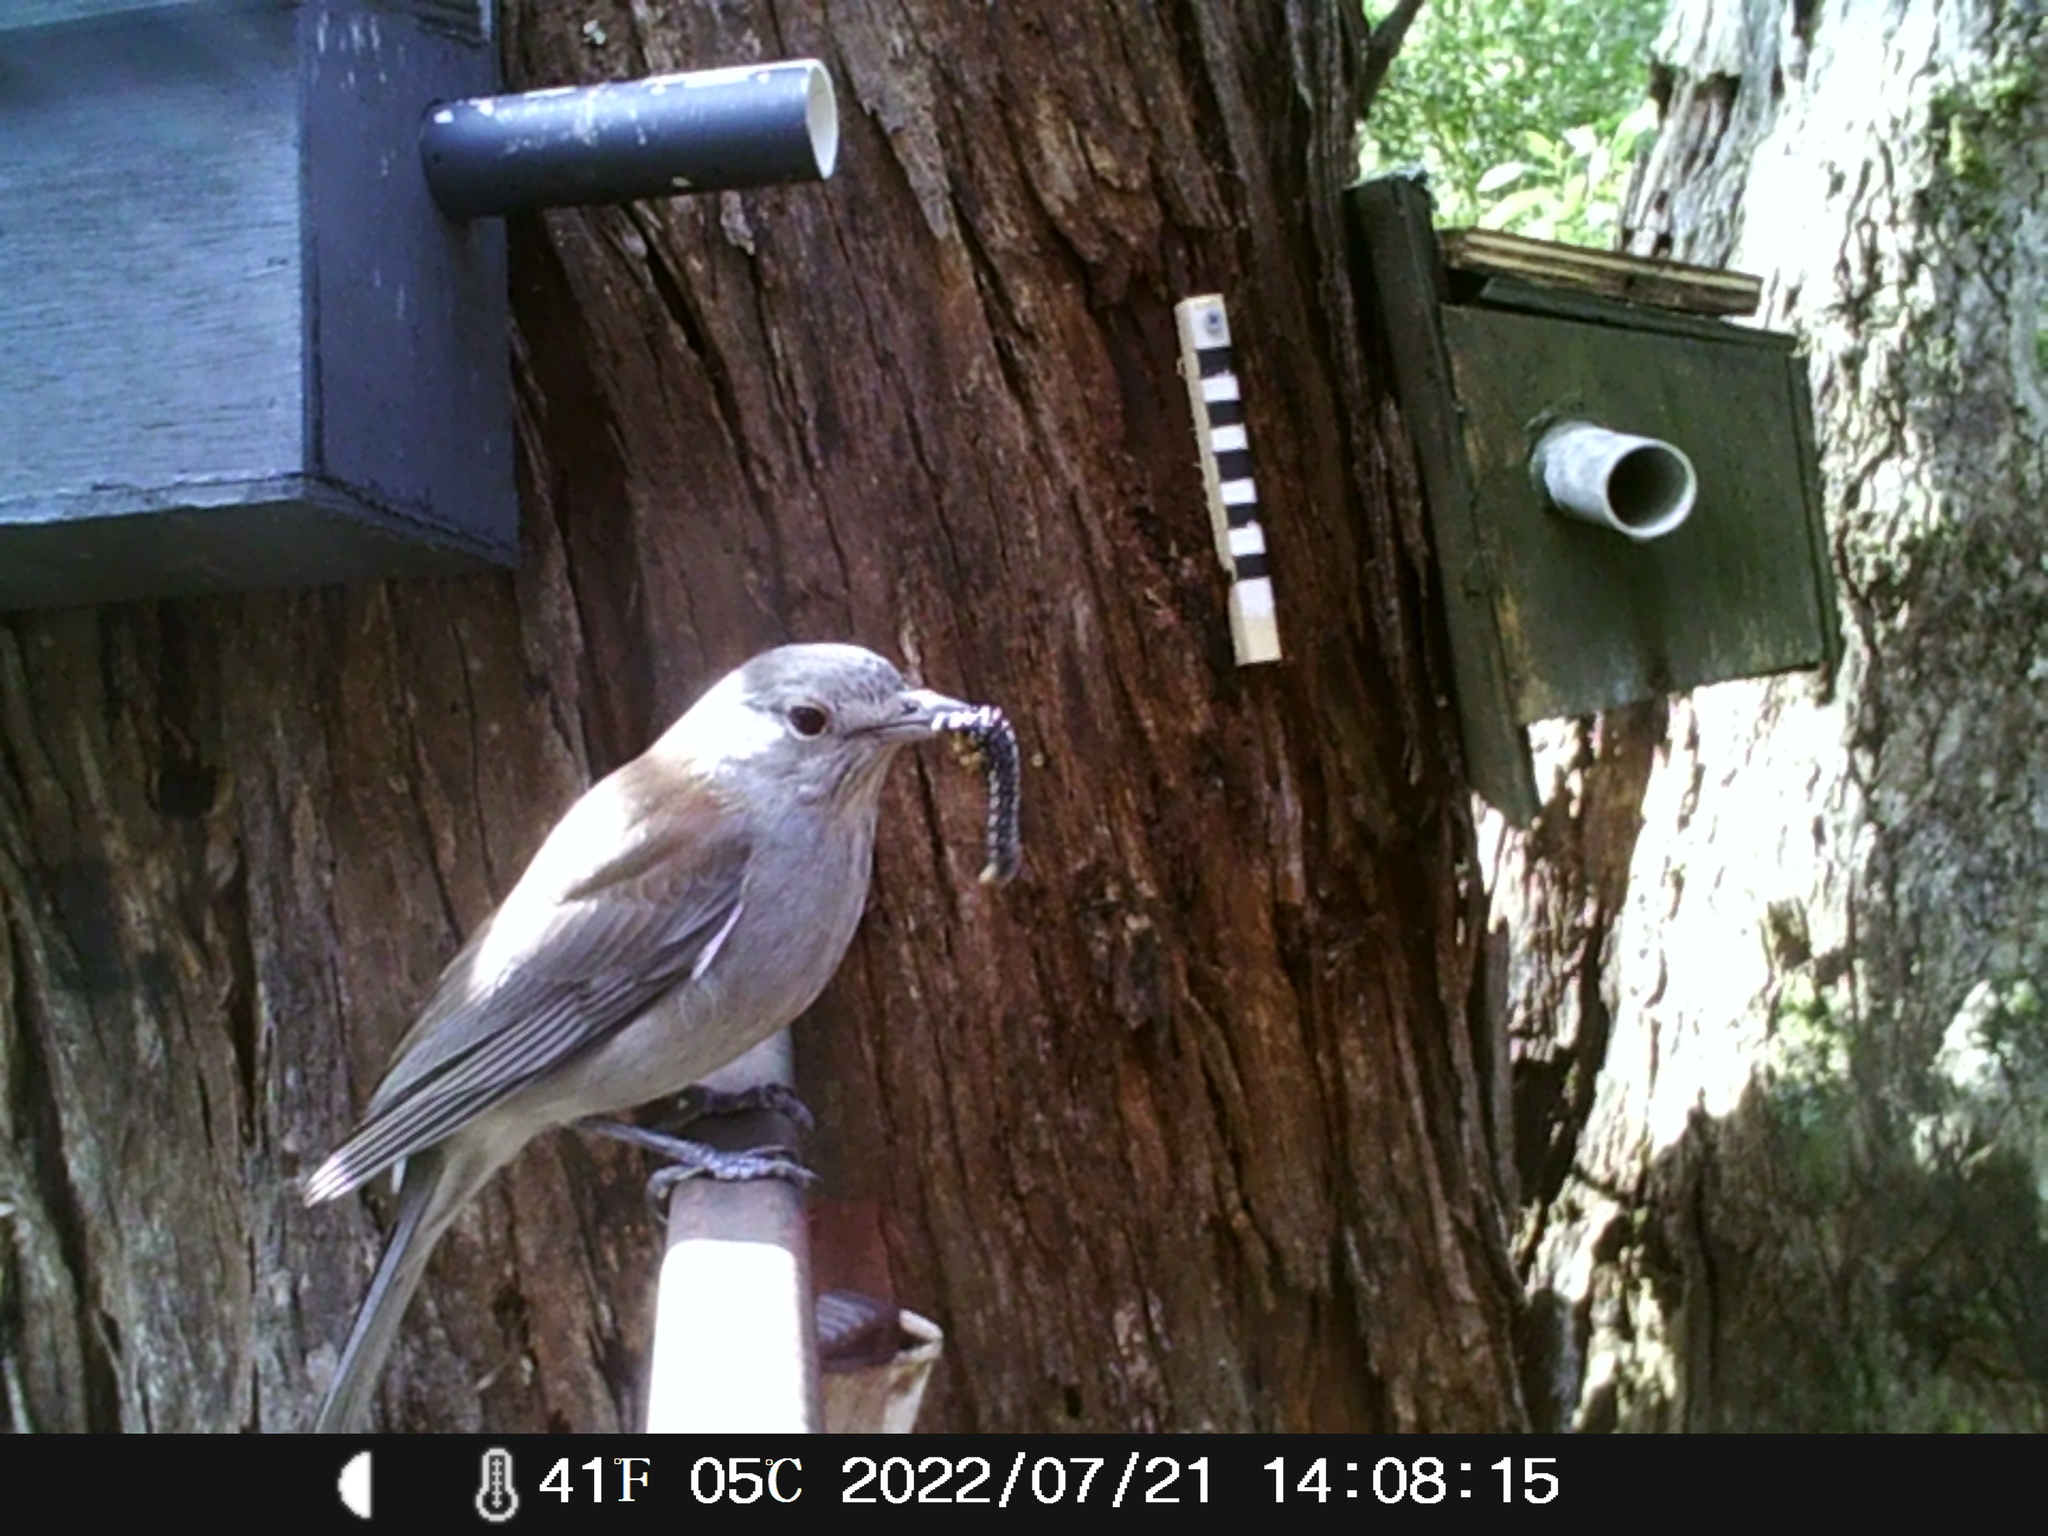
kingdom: Animalia
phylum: Chordata
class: Aves
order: Passeriformes
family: Pachycephalidae
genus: Colluricincla
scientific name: Colluricincla harmonica
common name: Grey shrikethrush
